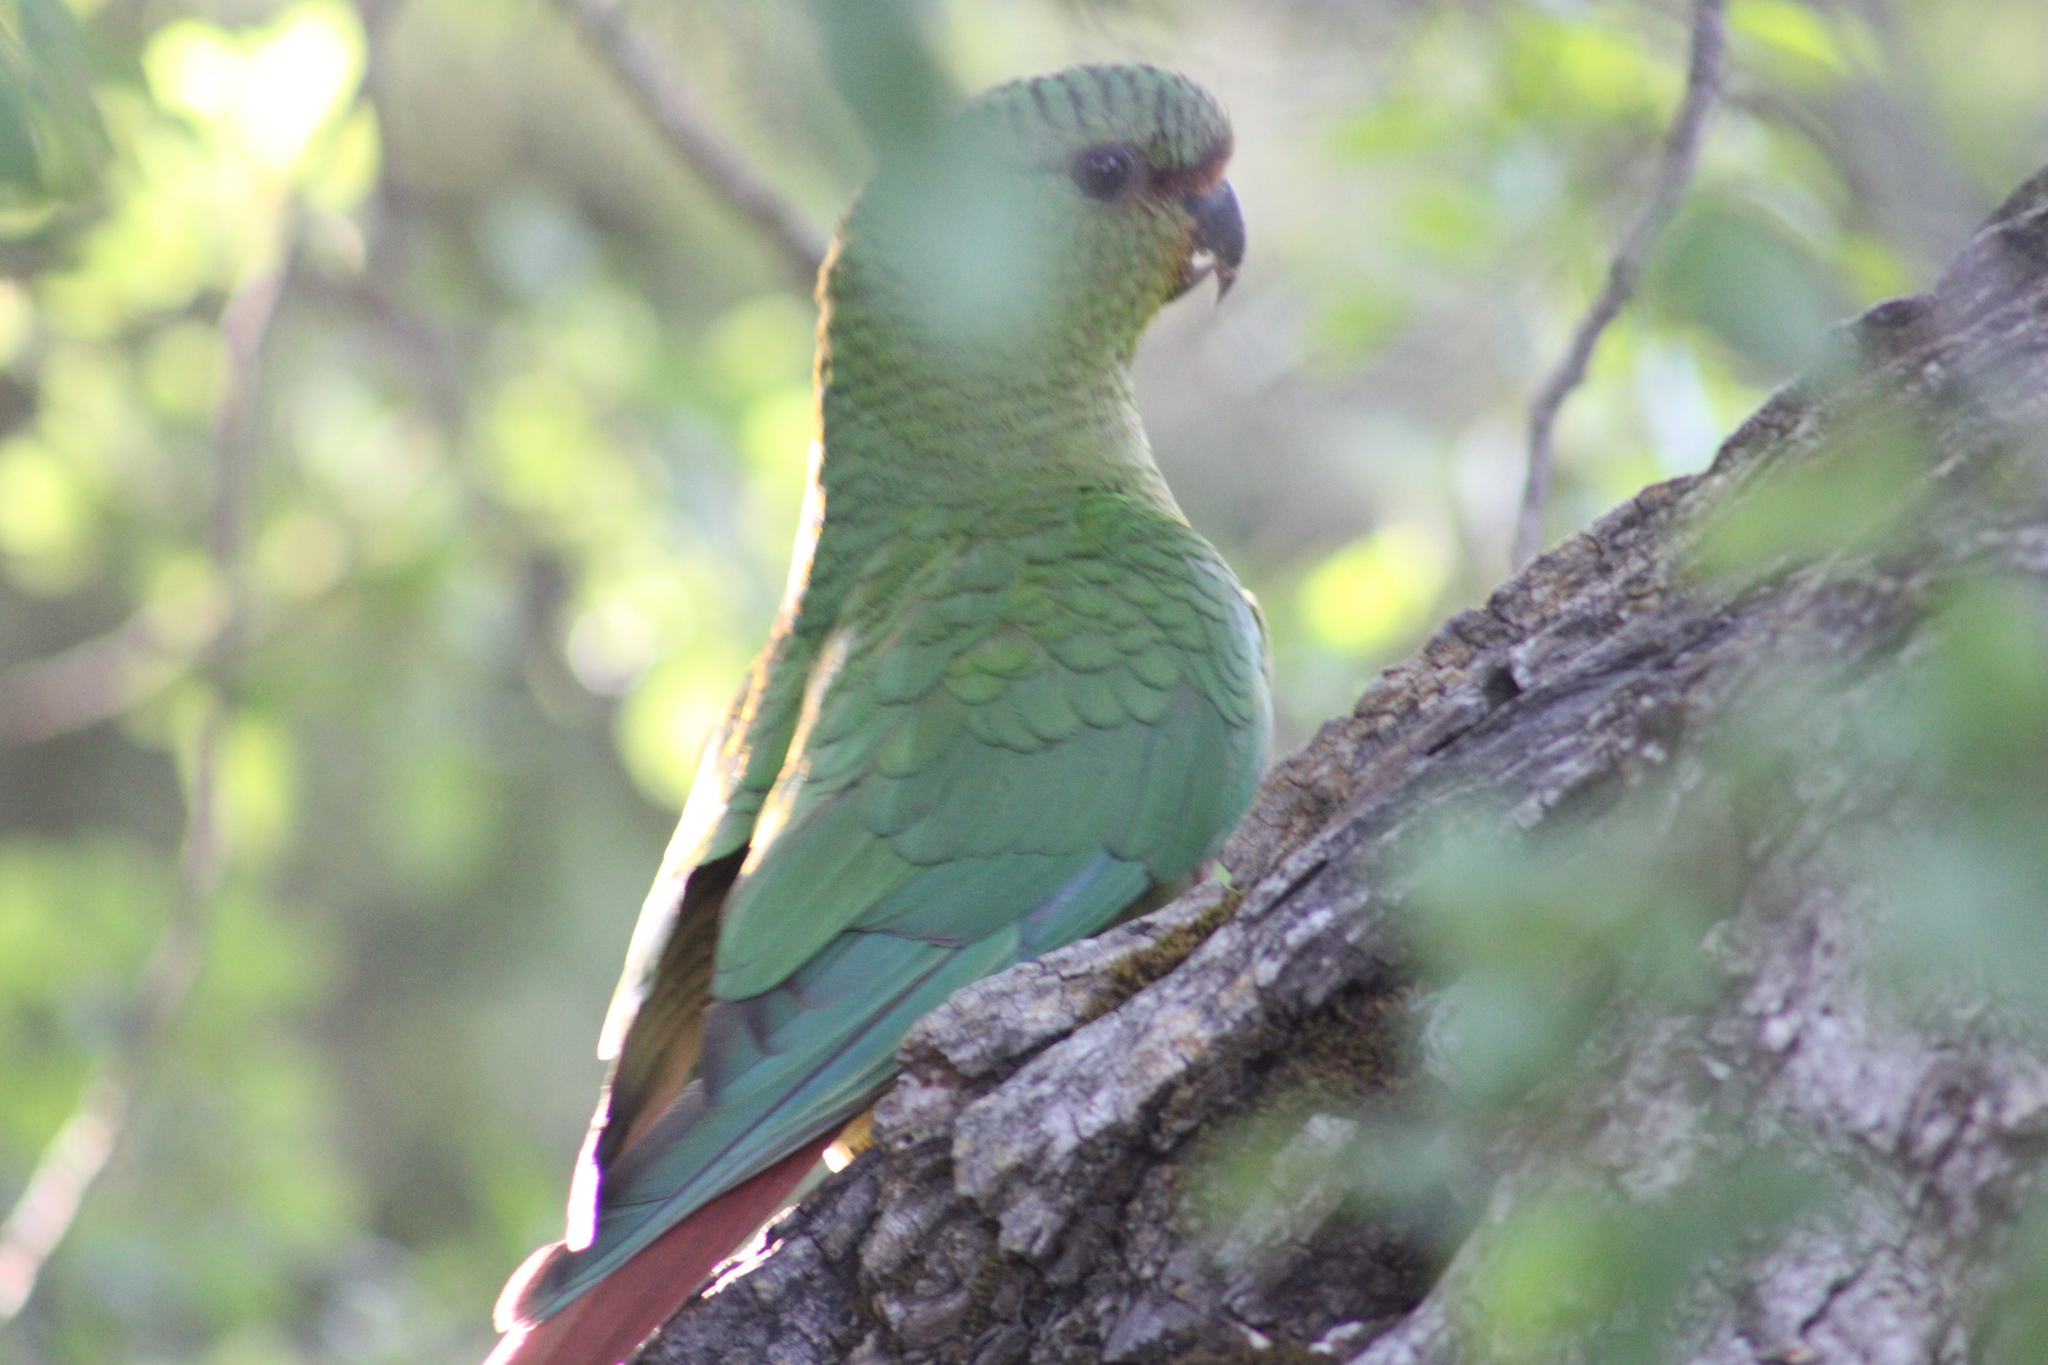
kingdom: Animalia
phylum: Chordata
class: Aves
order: Psittaciformes
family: Psittacidae
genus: Enicognathus
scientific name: Enicognathus ferrugineus
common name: Austral parakeet
